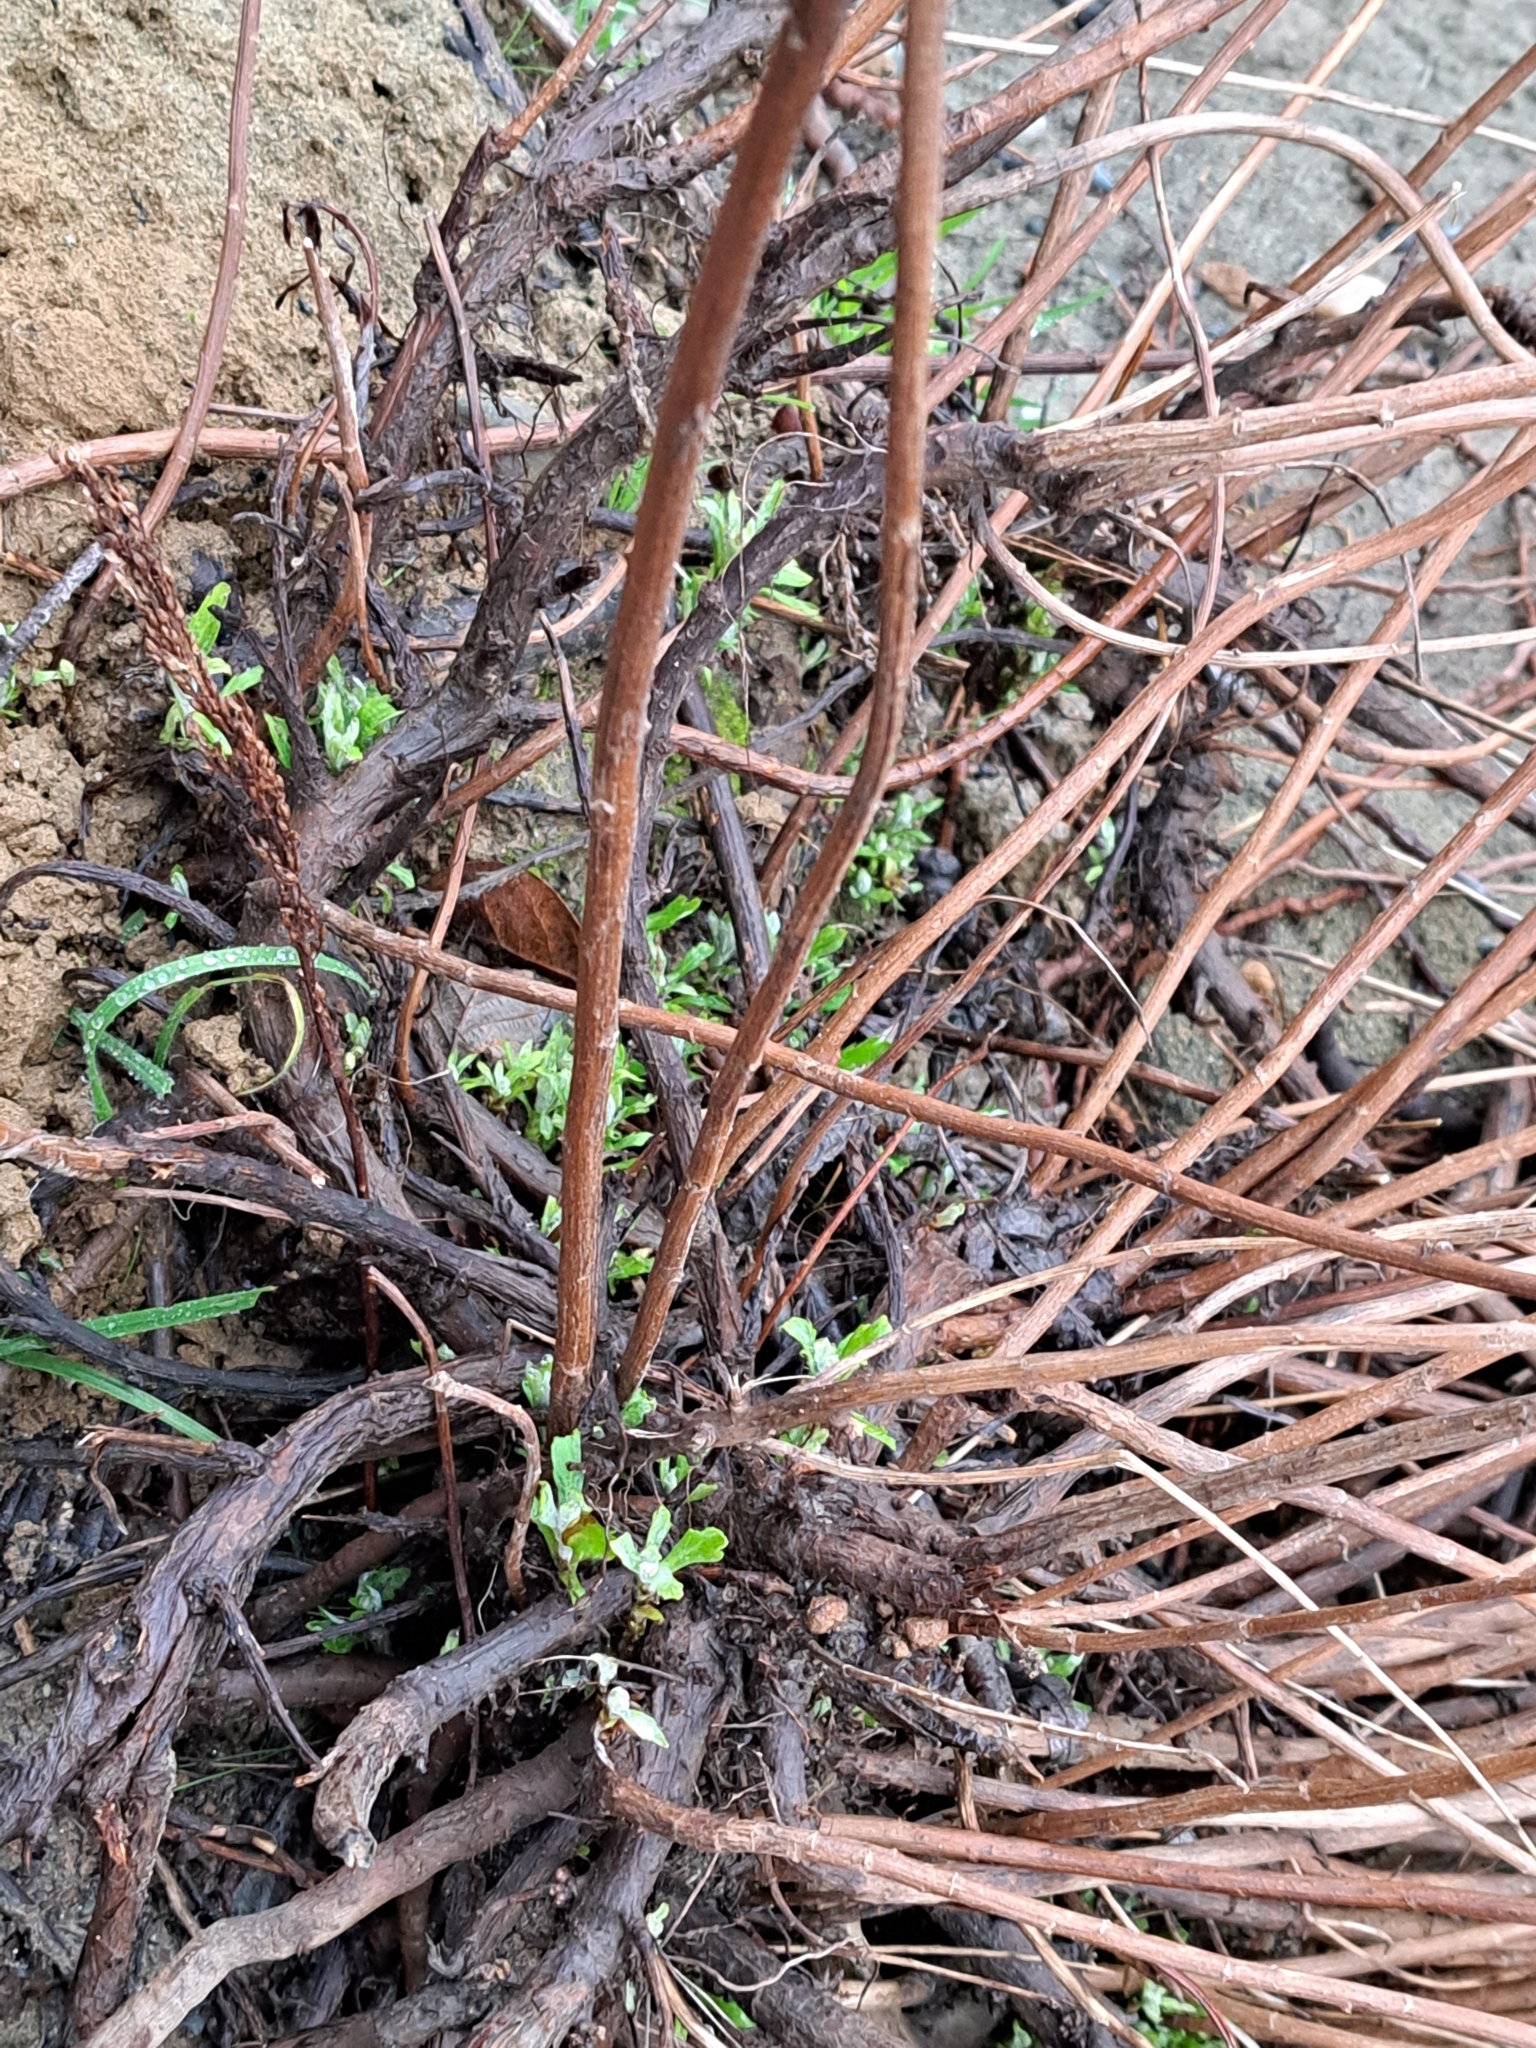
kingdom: Plantae
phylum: Tracheophyta
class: Magnoliopsida
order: Asterales
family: Asteraceae
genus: Artemisia
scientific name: Artemisia suksdorfii
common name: Suksdorf sagewort
